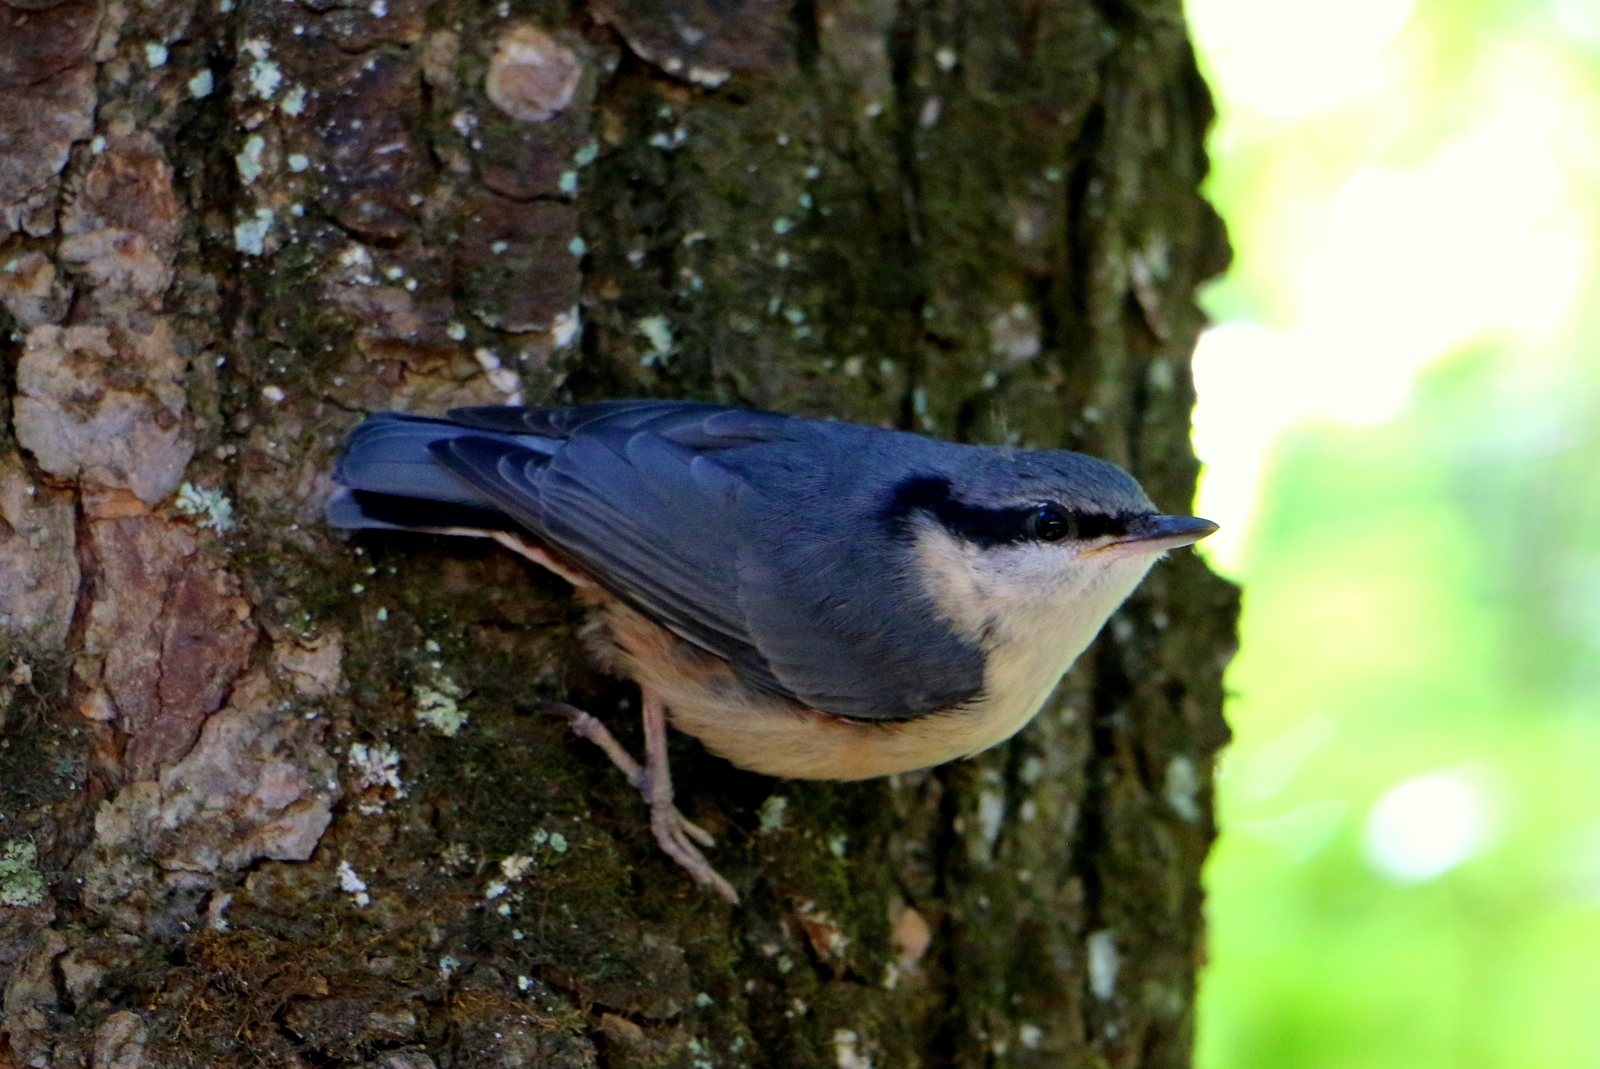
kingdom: Animalia
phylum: Chordata
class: Aves
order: Passeriformes
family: Sittidae
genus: Sitta
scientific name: Sitta europaea
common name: Eurasian nuthatch
